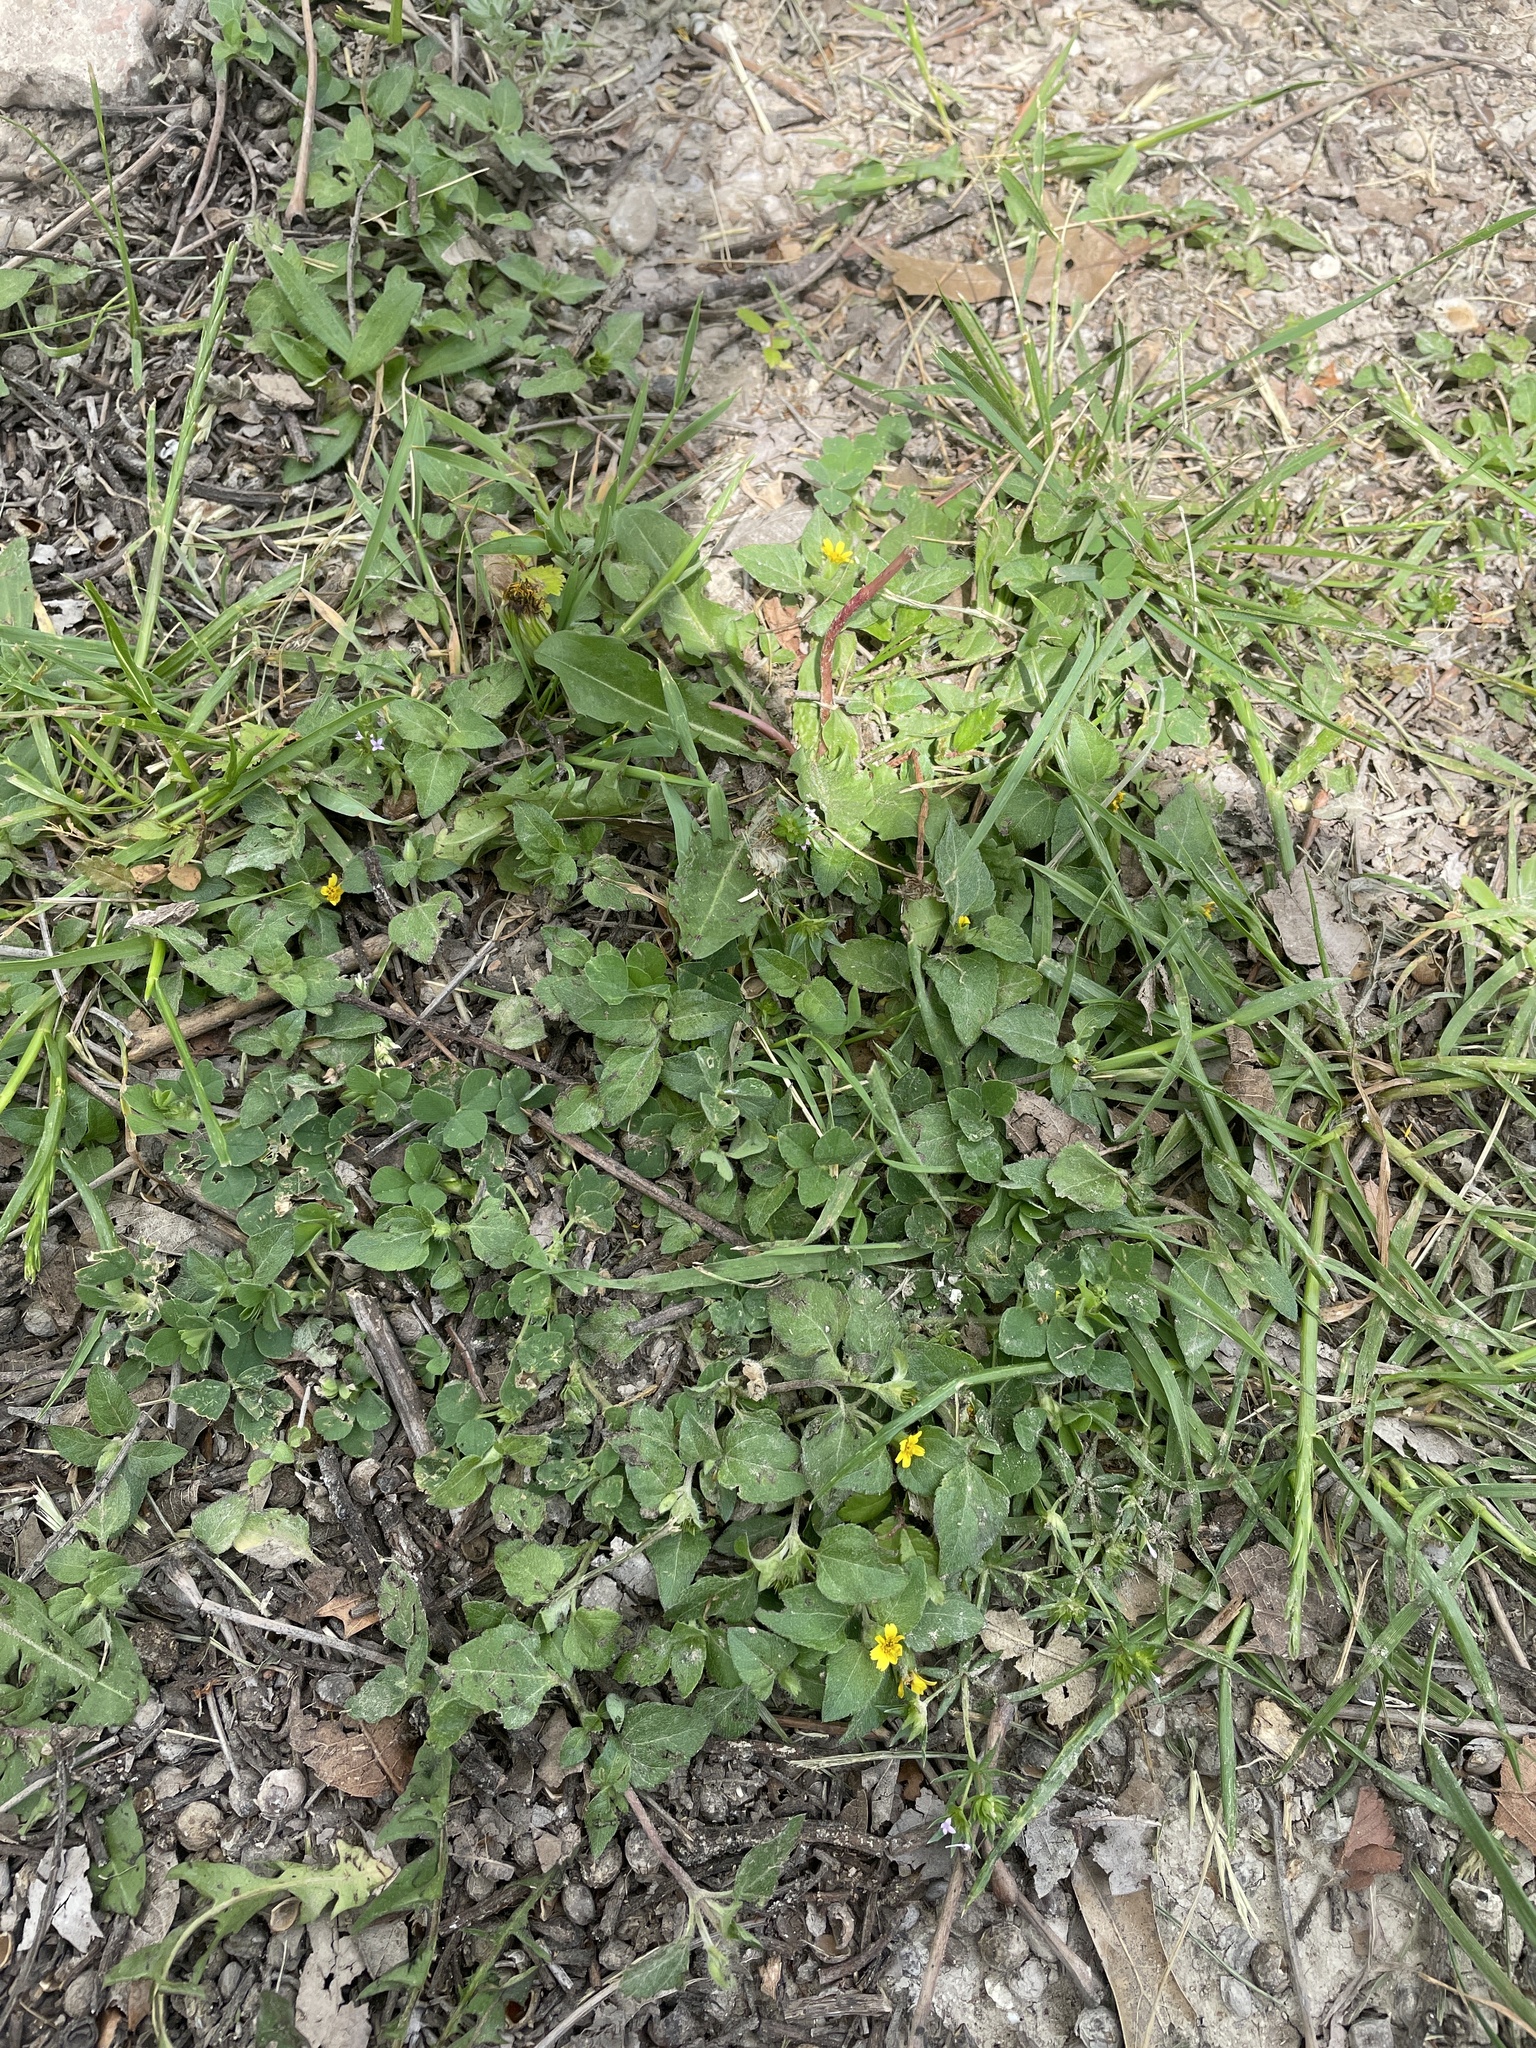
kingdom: Plantae
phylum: Tracheophyta
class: Magnoliopsida
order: Asterales
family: Asteraceae
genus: Calyptocarpus
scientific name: Calyptocarpus vialis
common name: Straggler daisy
